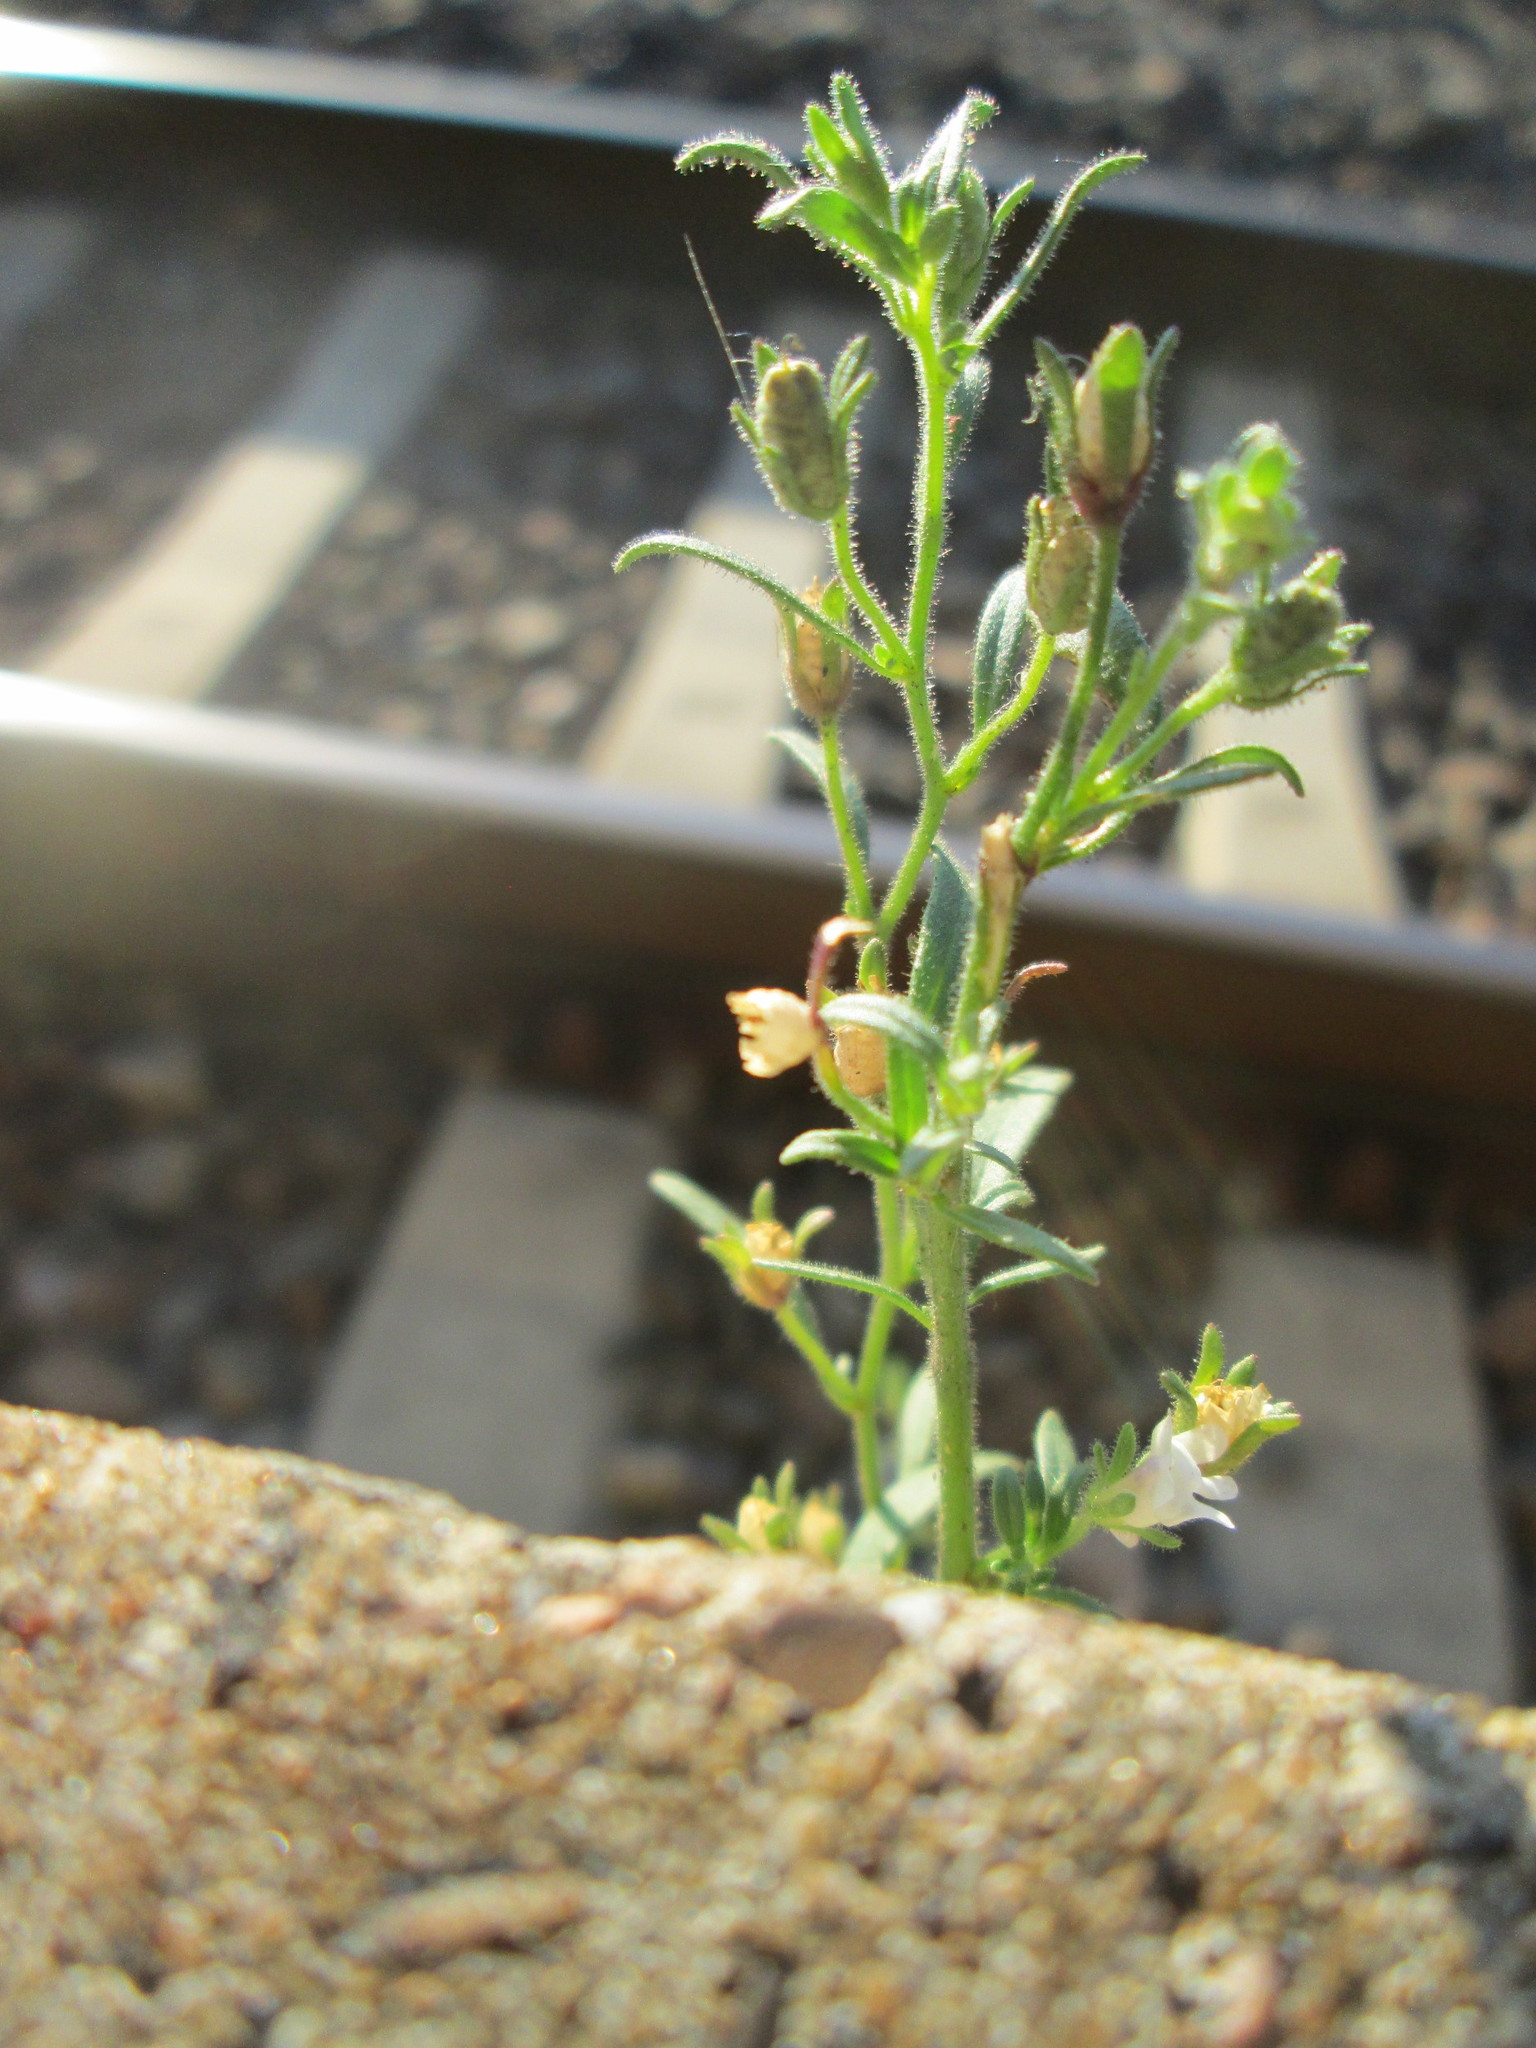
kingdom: Plantae
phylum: Tracheophyta
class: Magnoliopsida
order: Lamiales
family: Plantaginaceae
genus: Chaenorhinum
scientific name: Chaenorhinum minus
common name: Dwarf snapdragon
